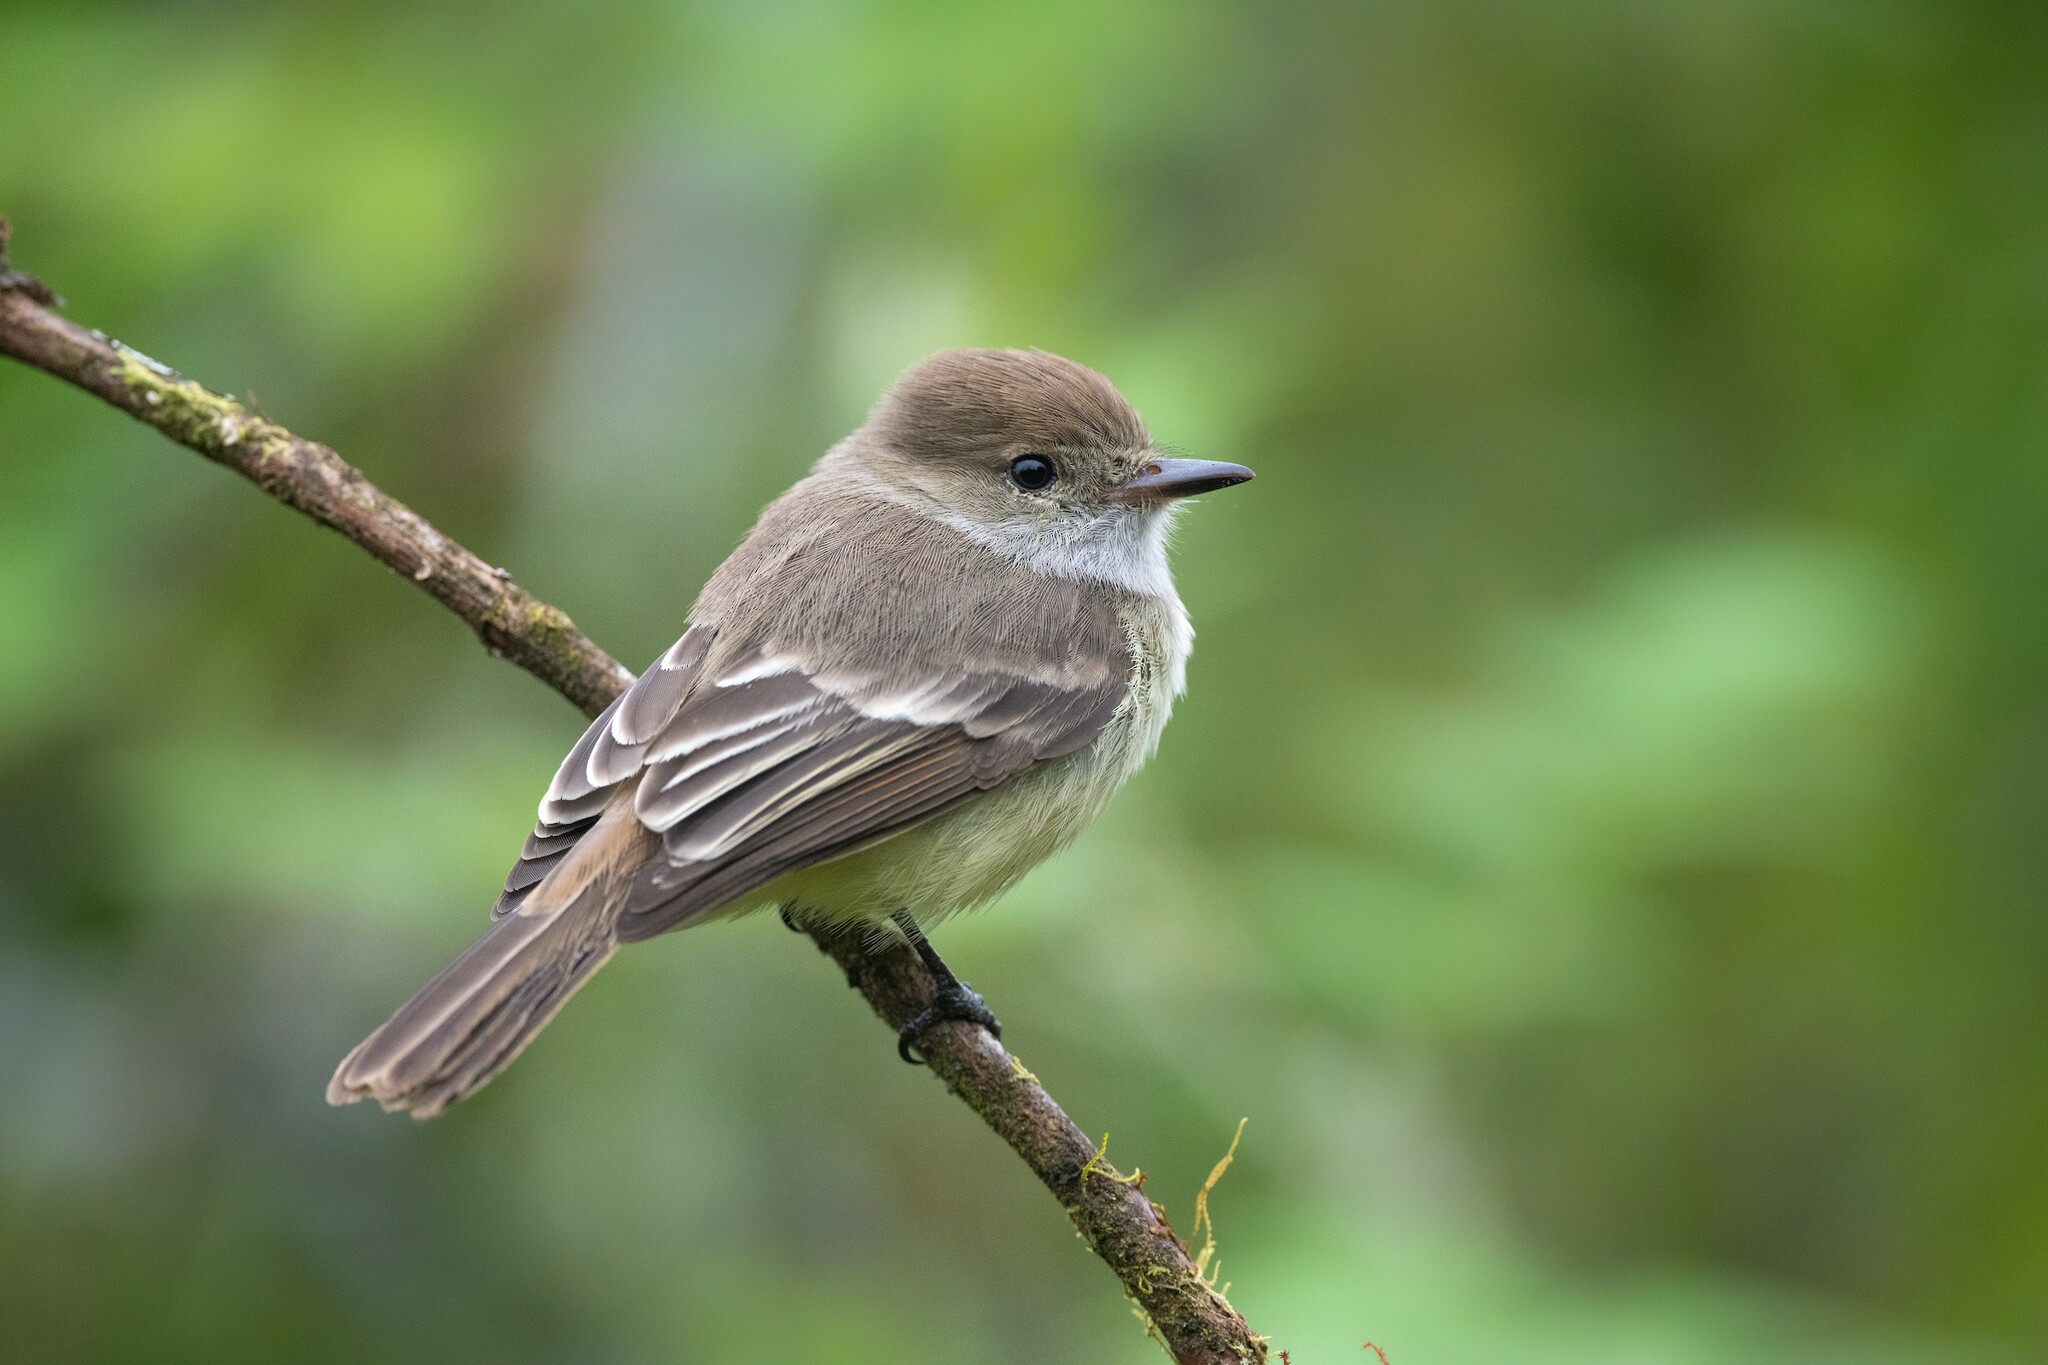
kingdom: Animalia
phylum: Chordata
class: Aves
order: Passeriformes
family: Tyrannidae
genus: Myiarchus
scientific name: Myiarchus magnirostris
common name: Galapagos flycatcher
